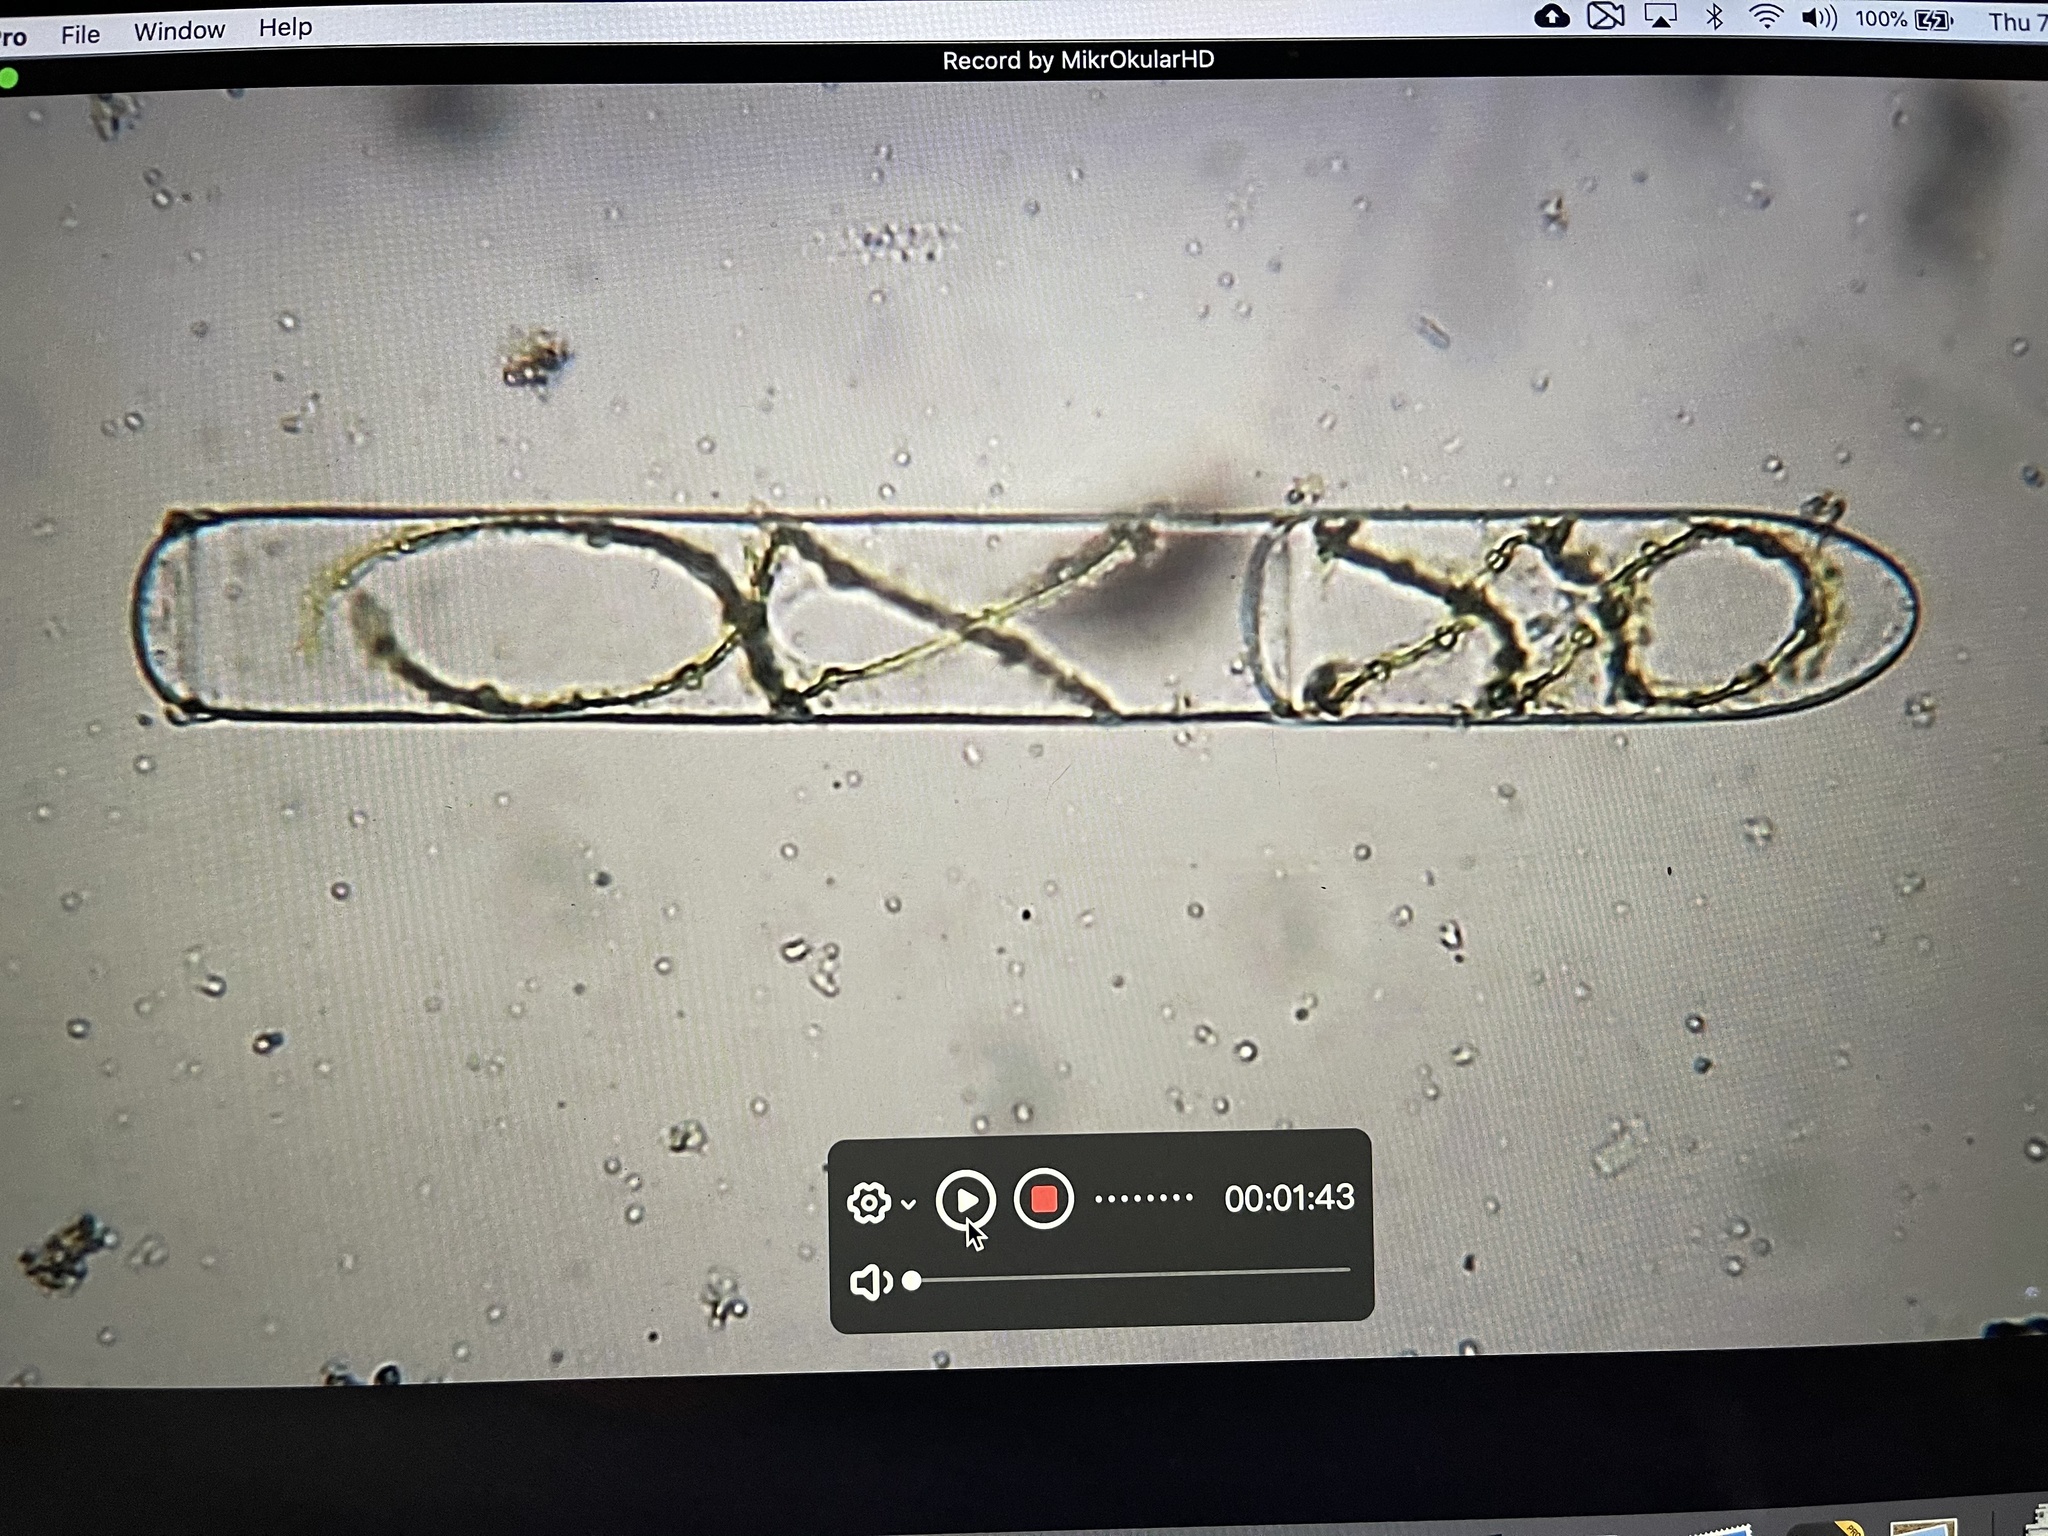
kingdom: Plantae
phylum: Charophyta
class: Zygnematophyceae
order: Zygnematales
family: Zygnemataceae
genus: Spirogyra
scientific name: Spirogyra
